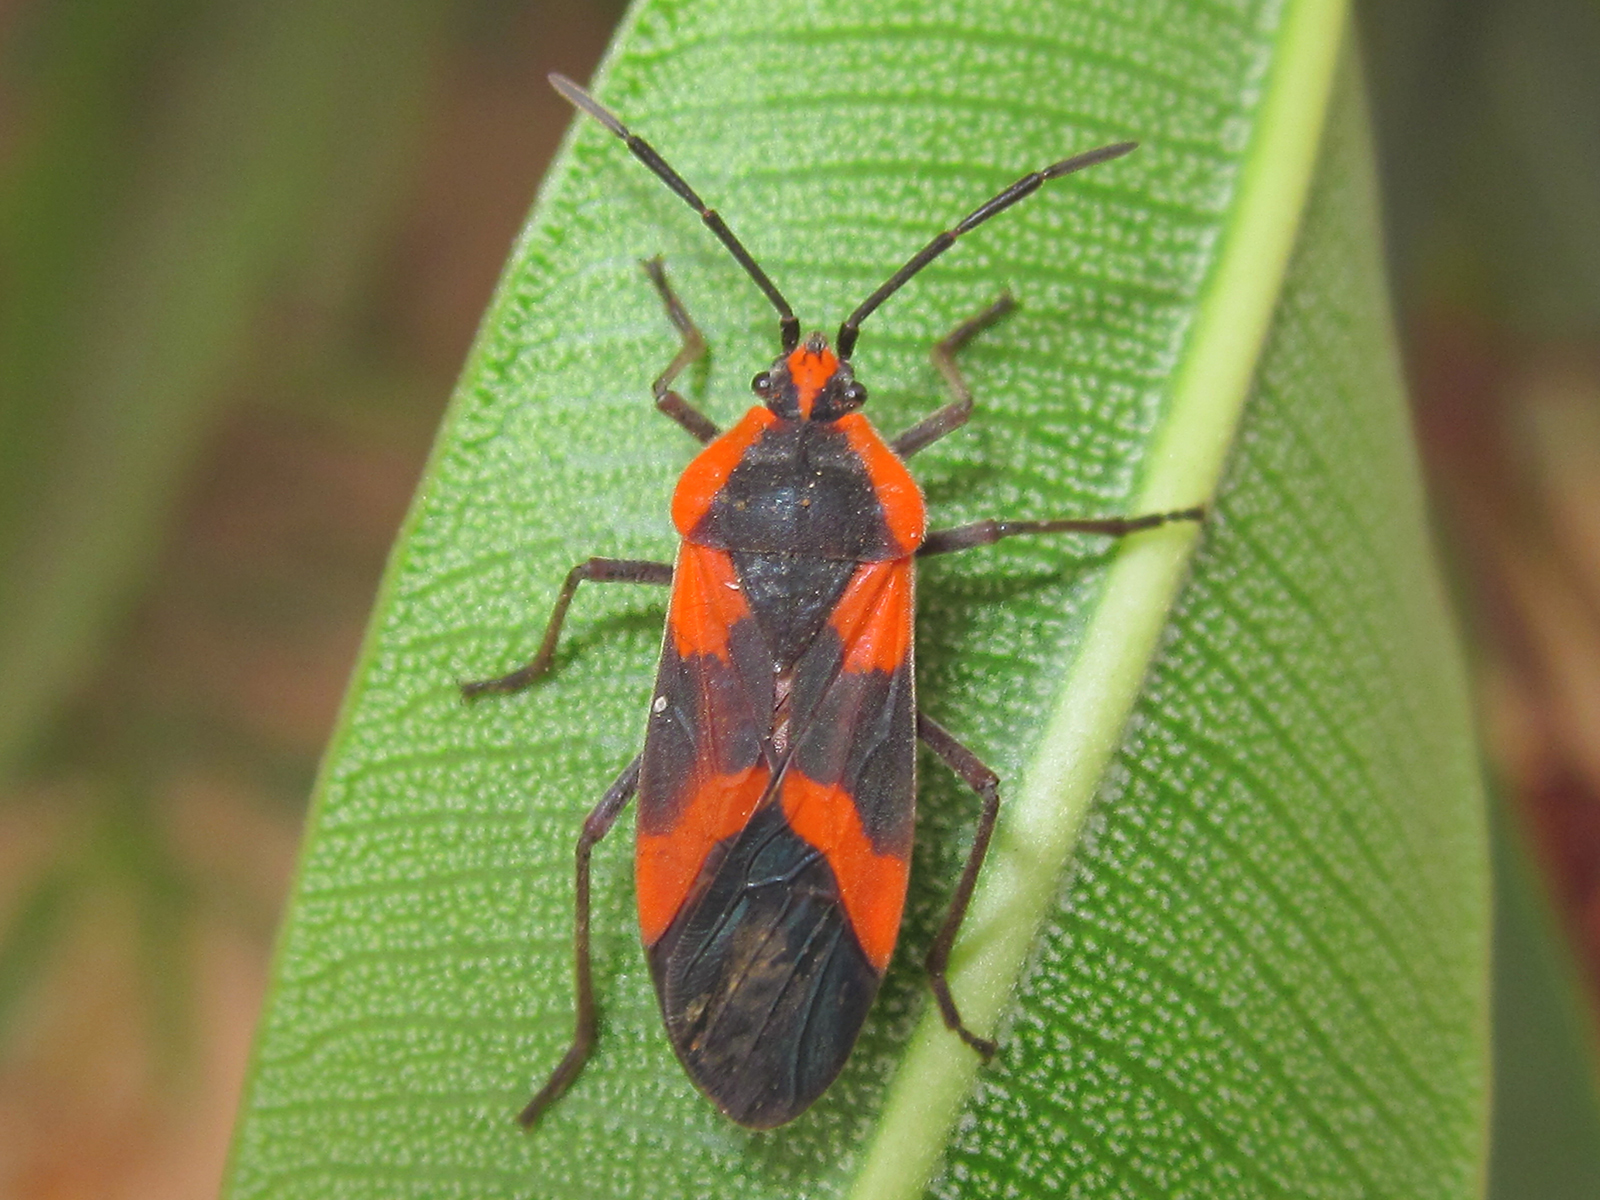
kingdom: Animalia
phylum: Arthropoda
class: Insecta
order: Hemiptera
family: Lygaeidae
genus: Oncopeltus
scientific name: Oncopeltus miles
